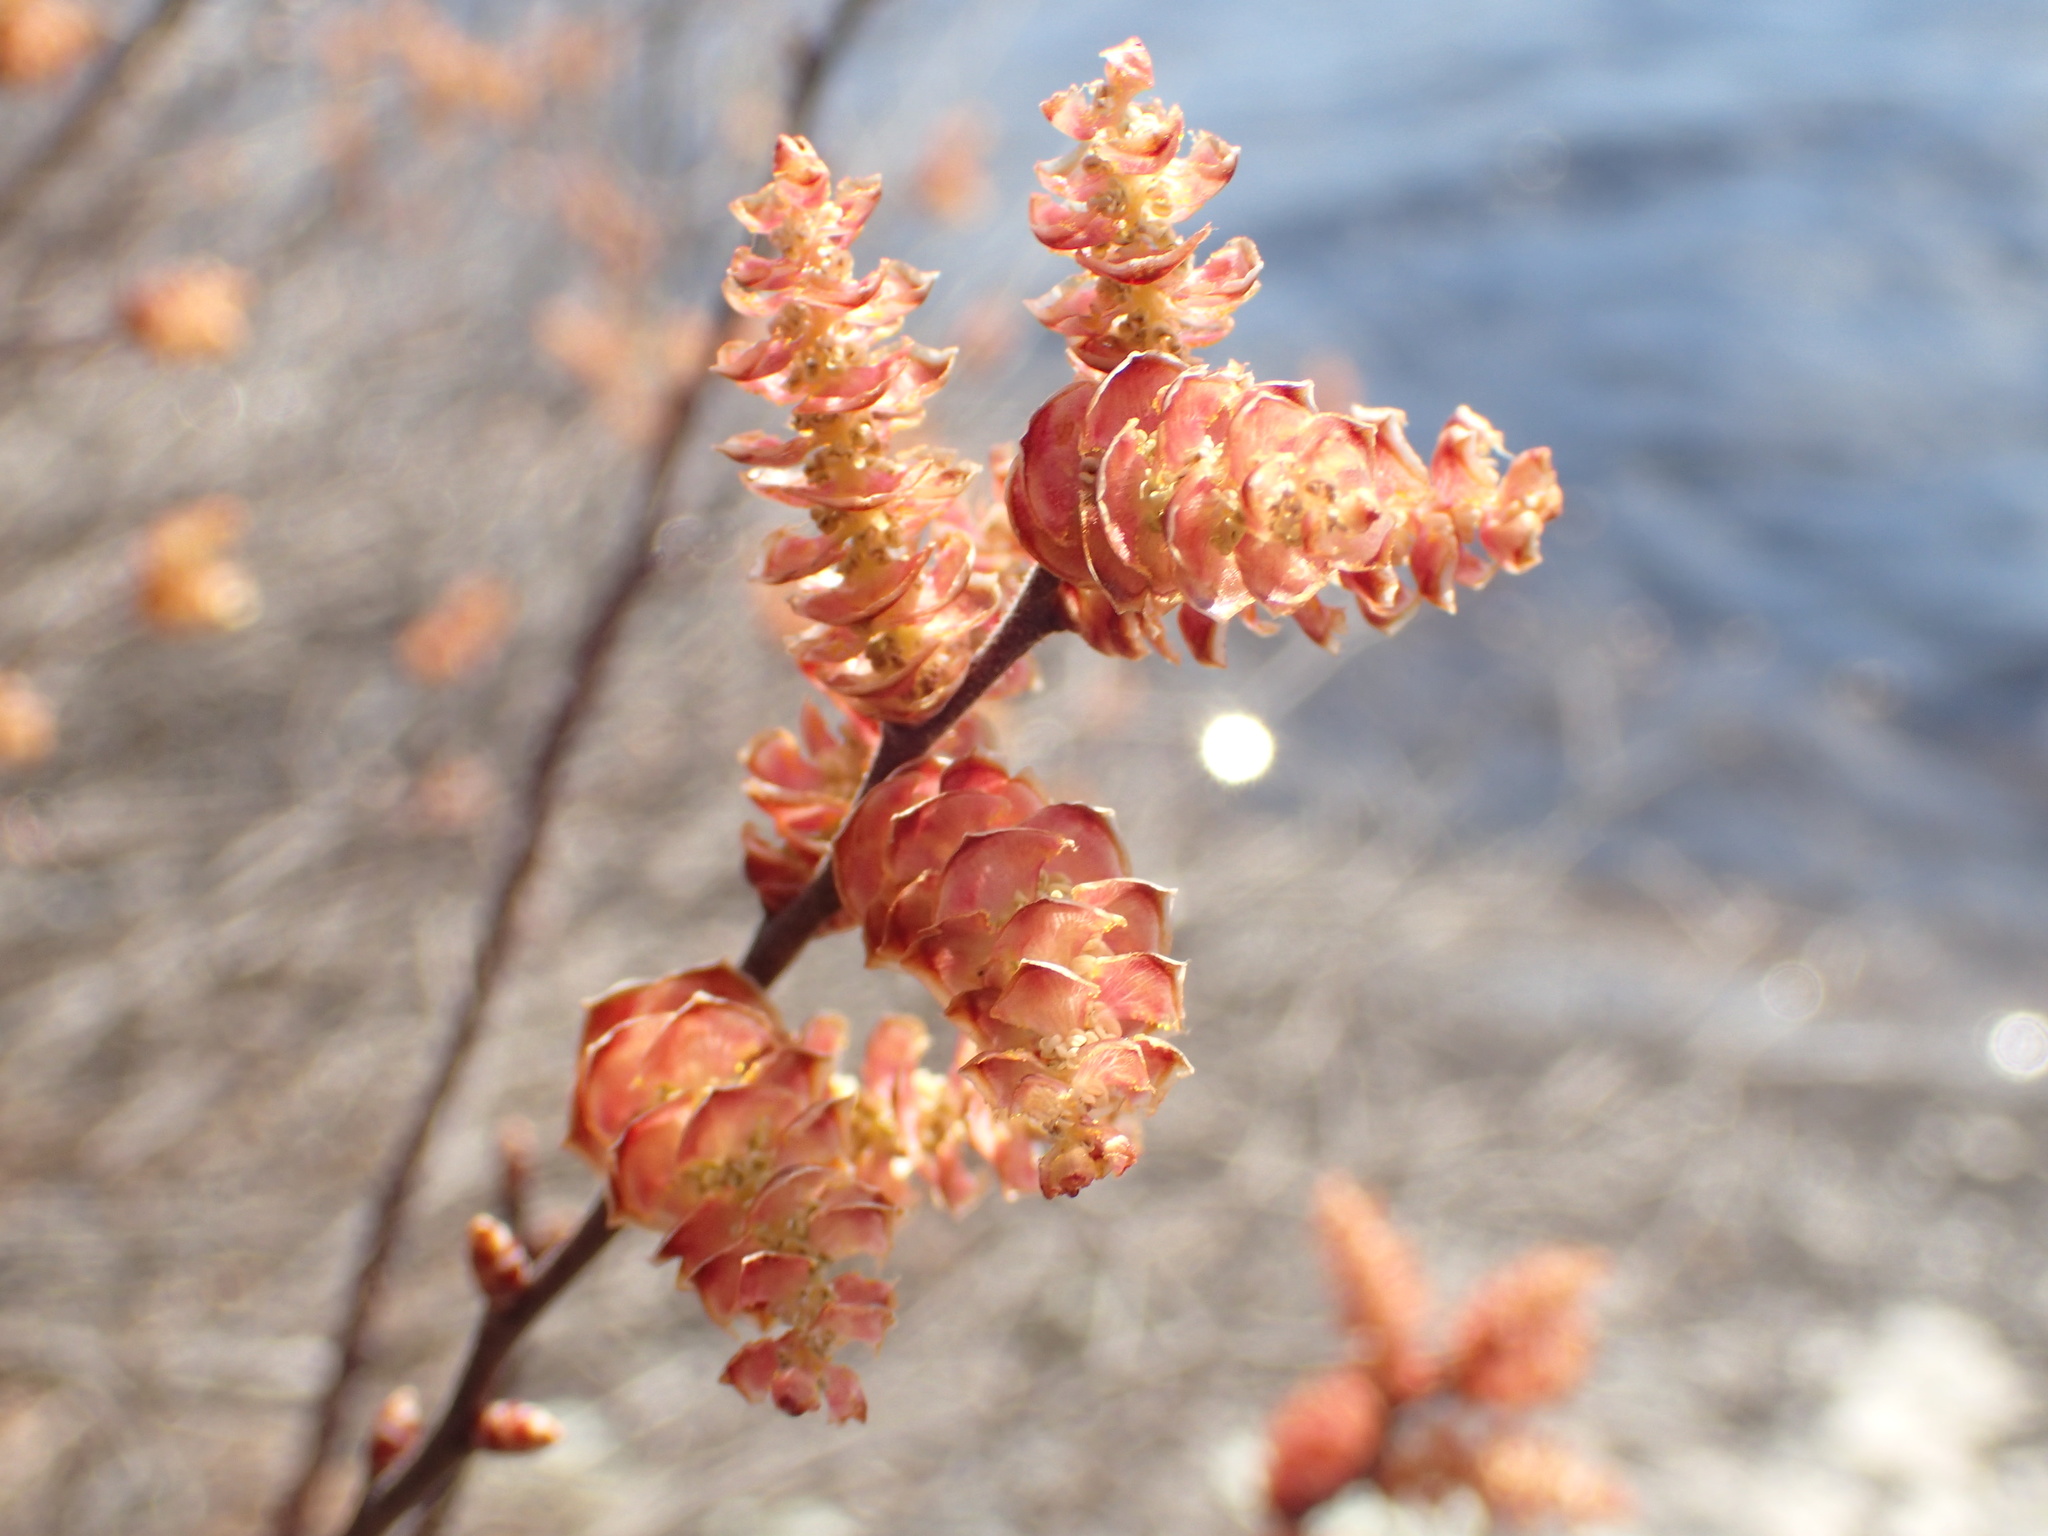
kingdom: Plantae
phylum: Tracheophyta
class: Magnoliopsida
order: Fagales
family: Myricaceae
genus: Myrica
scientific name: Myrica gale
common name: Sweet gale
